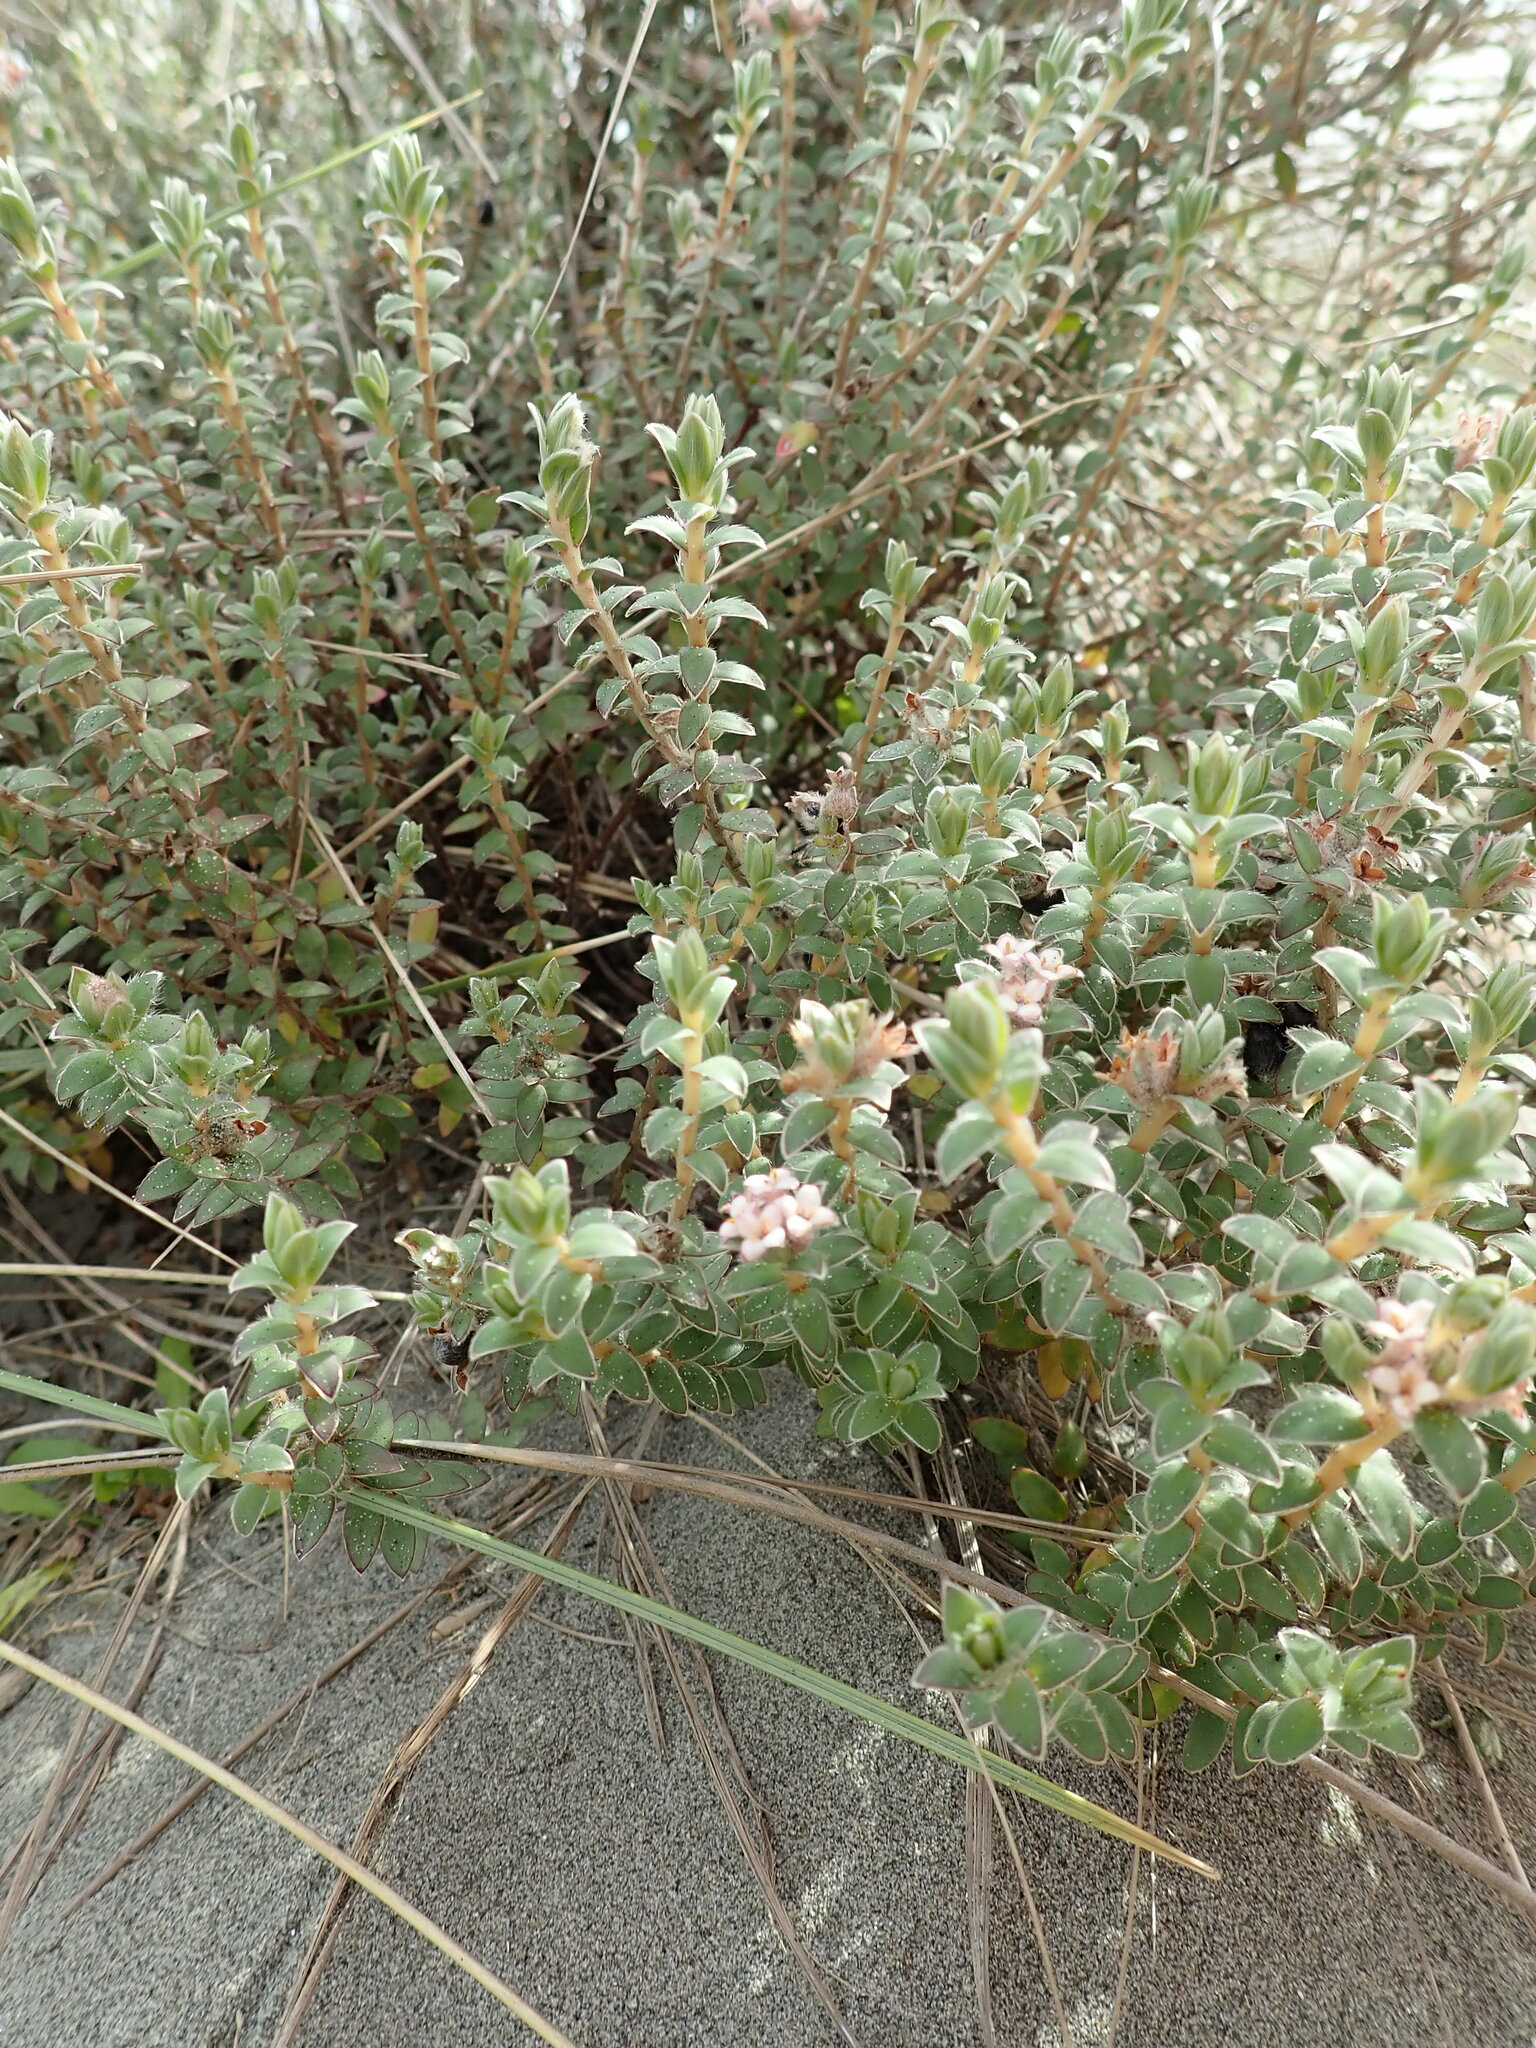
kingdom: Plantae
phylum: Tracheophyta
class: Magnoliopsida
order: Malvales
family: Thymelaeaceae
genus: Pimelea
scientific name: Pimelea villosa
